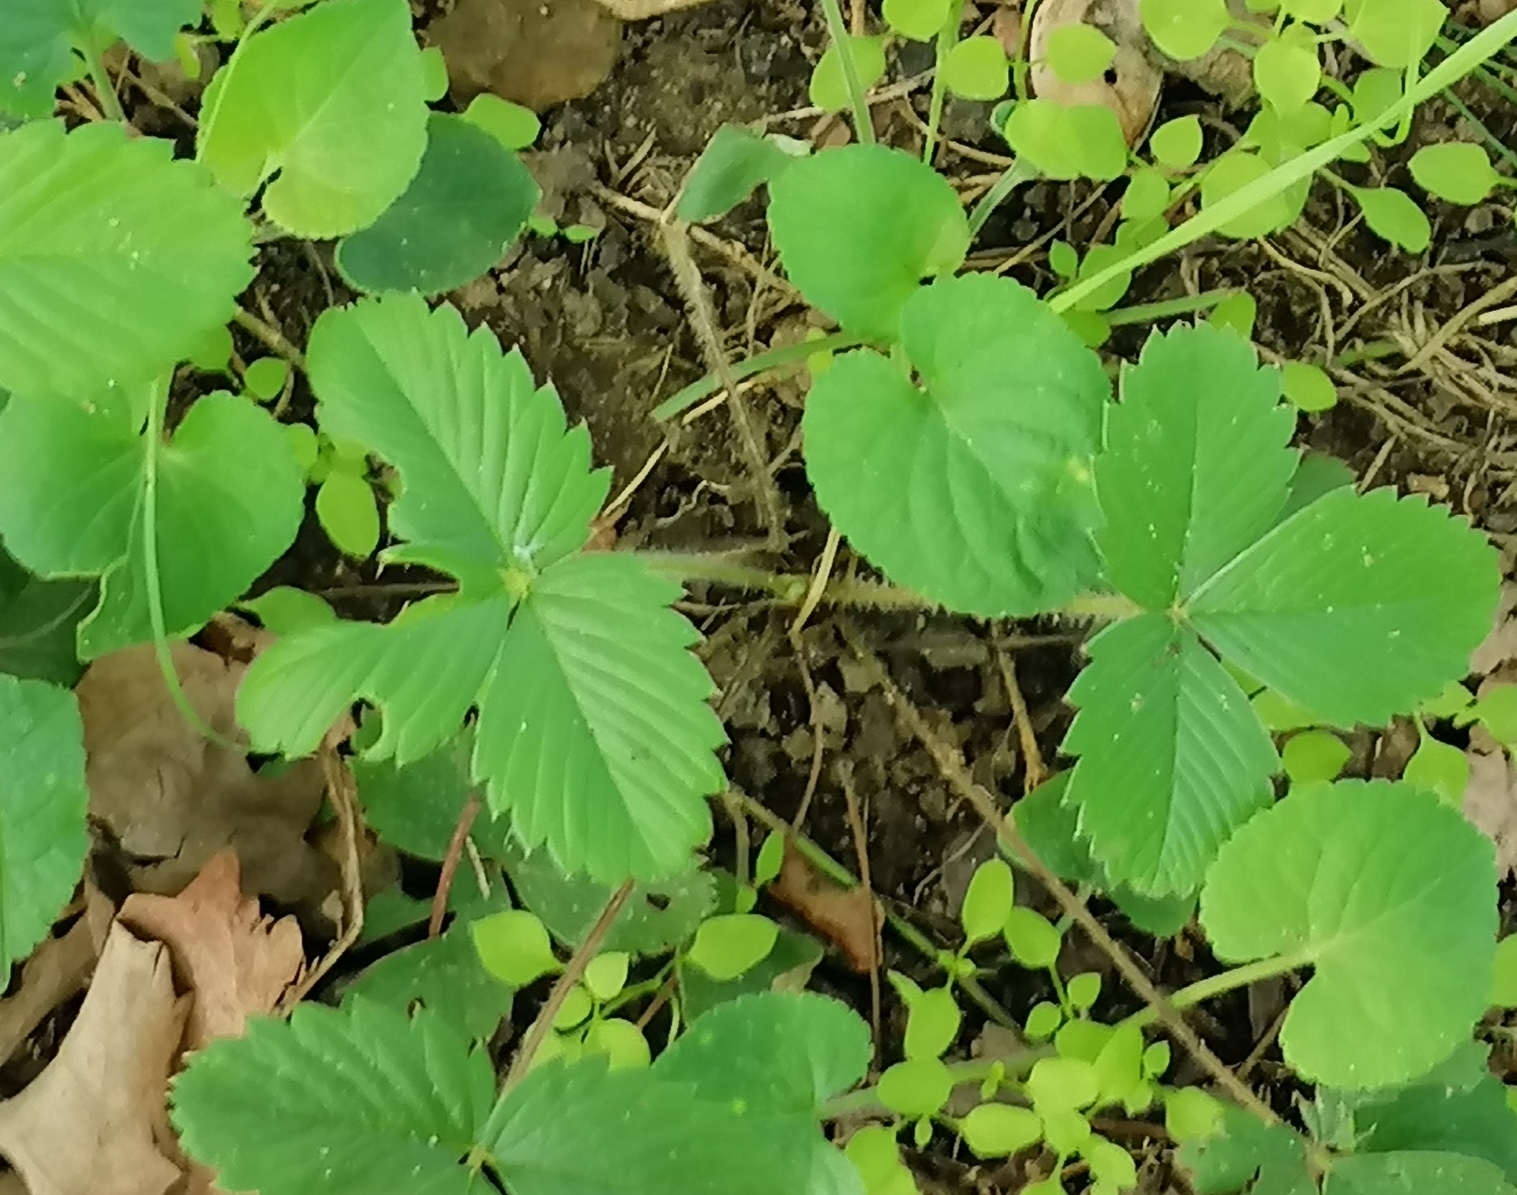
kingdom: Plantae
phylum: Tracheophyta
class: Magnoliopsida
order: Rosales
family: Rosaceae
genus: Fragaria
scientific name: Fragaria vesca
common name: Wild strawberry
